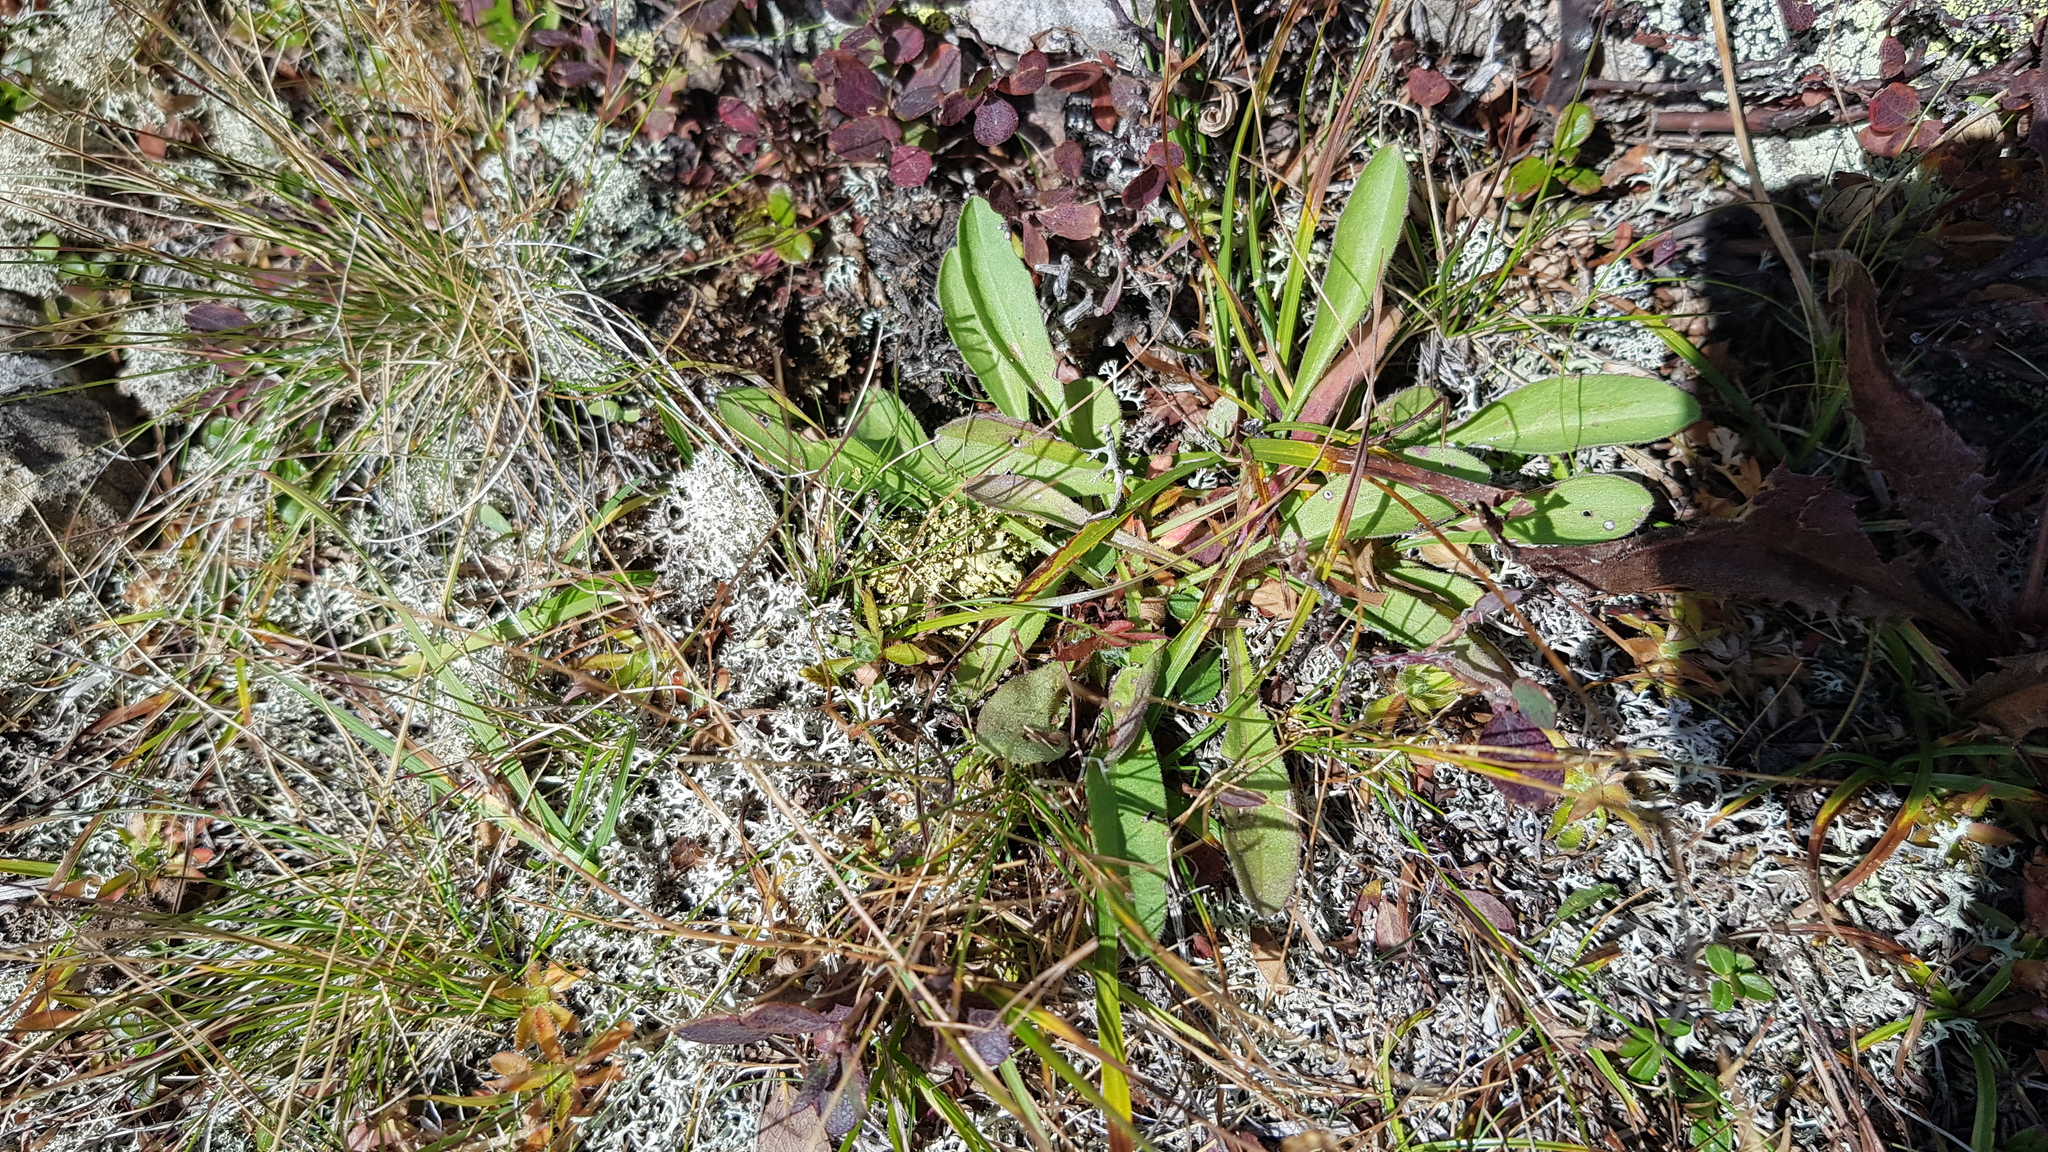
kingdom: Plantae
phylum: Tracheophyta
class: Magnoliopsida
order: Dipsacales
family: Caprifoliaceae
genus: Patrinia
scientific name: Patrinia sibirica
